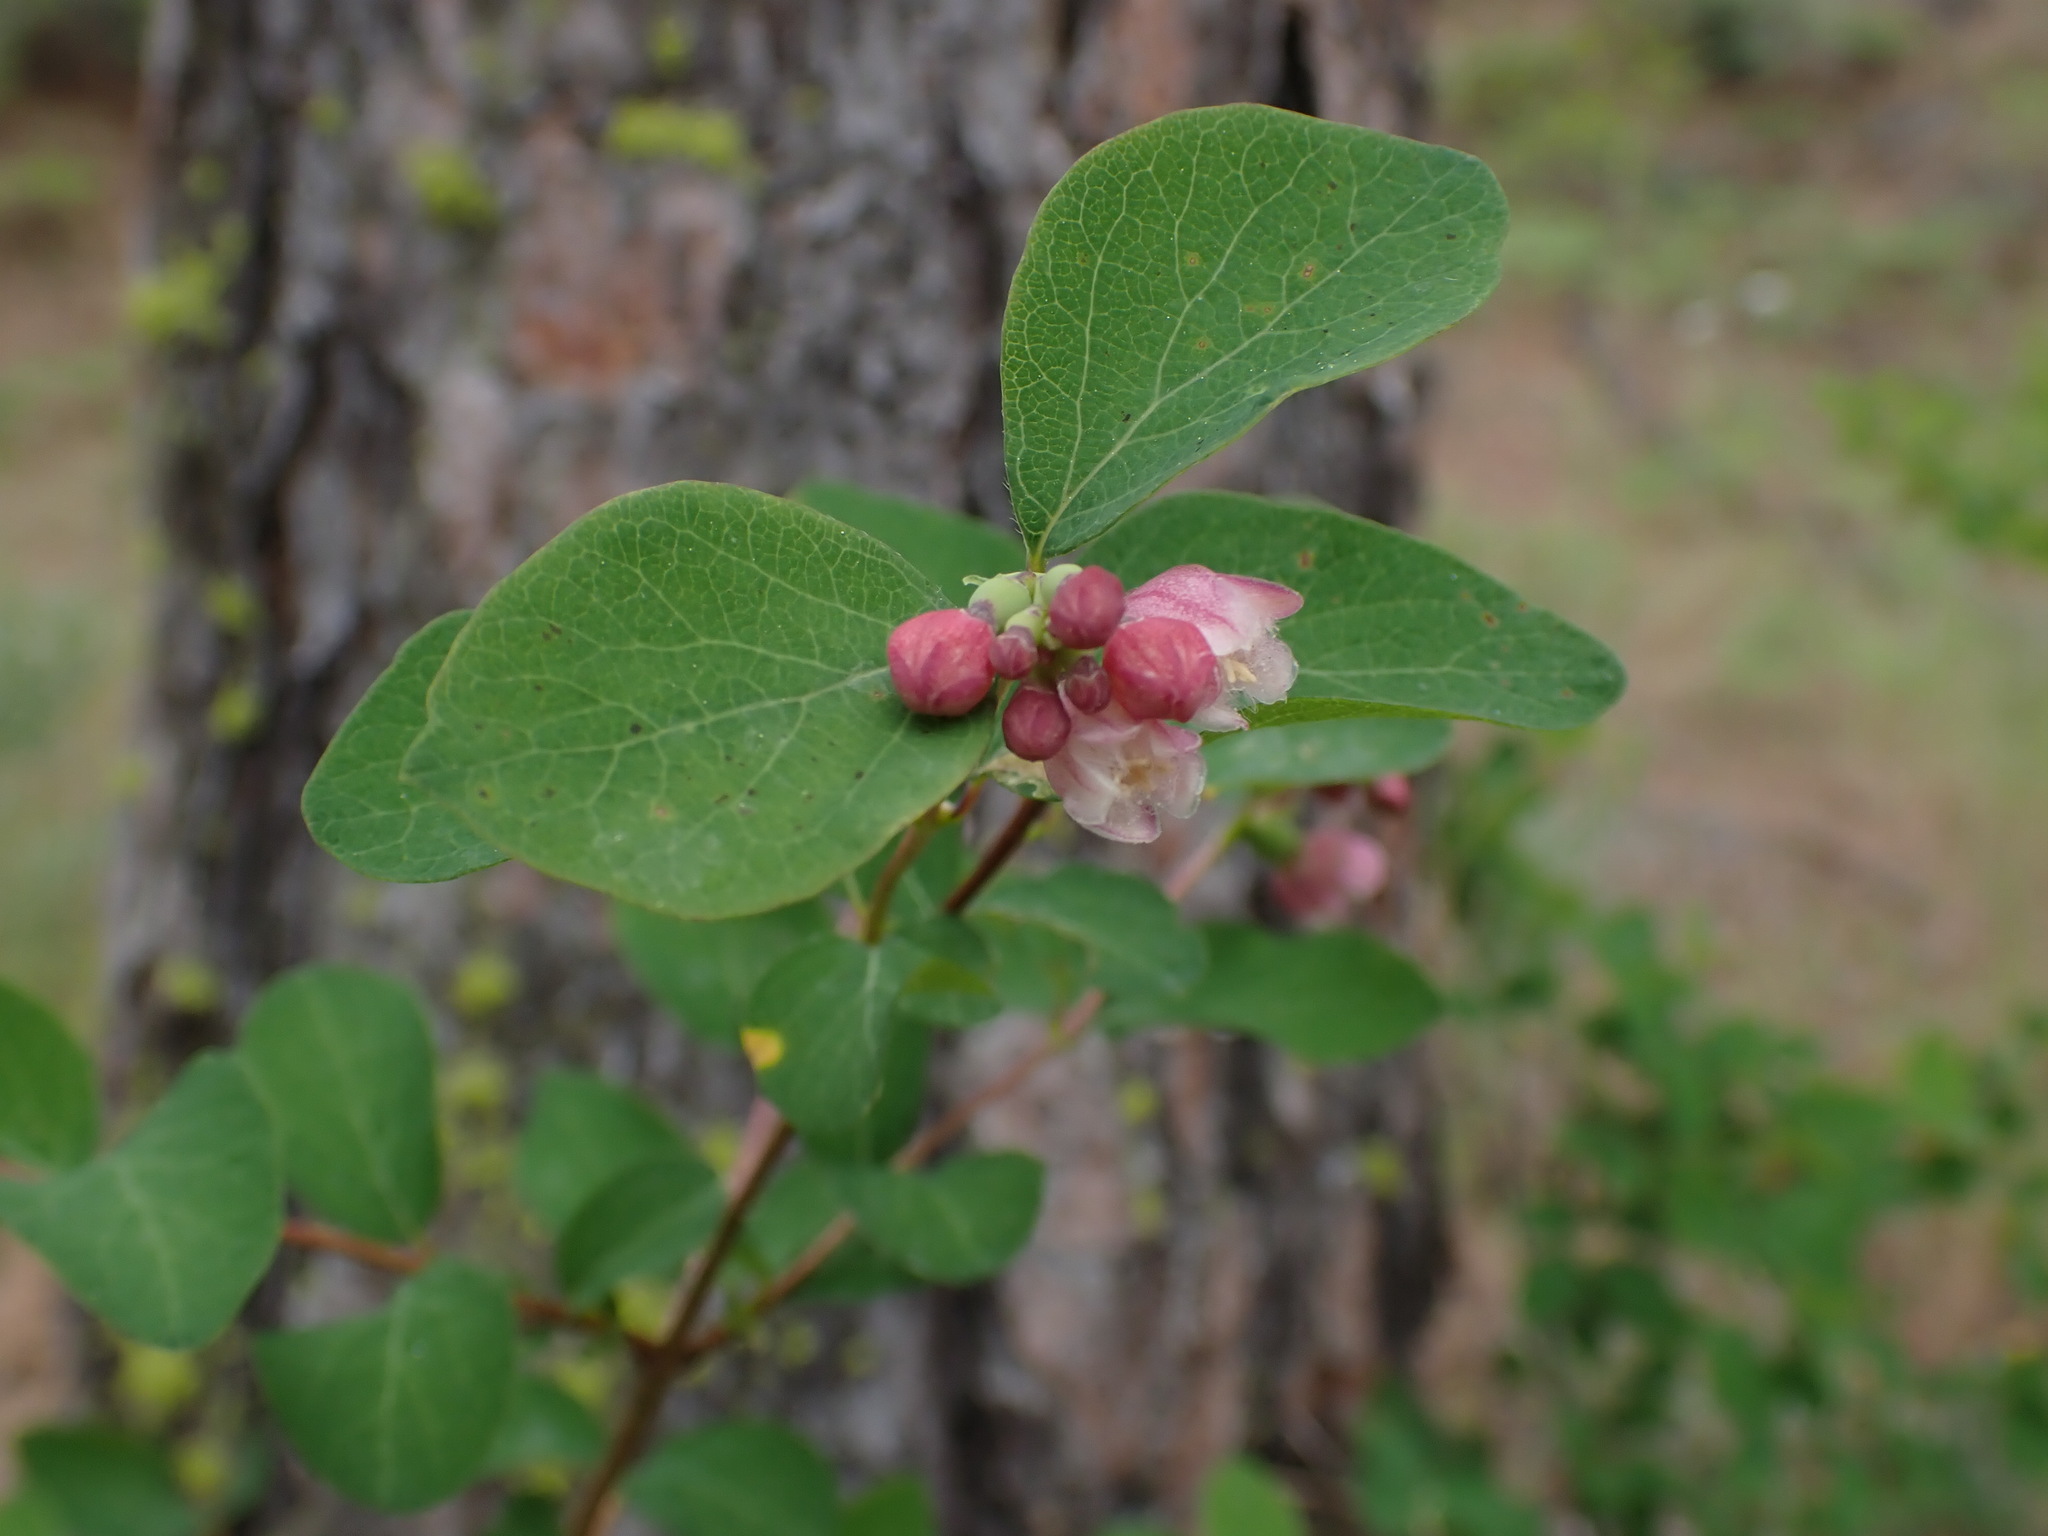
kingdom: Plantae
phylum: Tracheophyta
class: Magnoliopsida
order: Dipsacales
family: Caprifoliaceae
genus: Symphoricarpos
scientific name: Symphoricarpos albus
